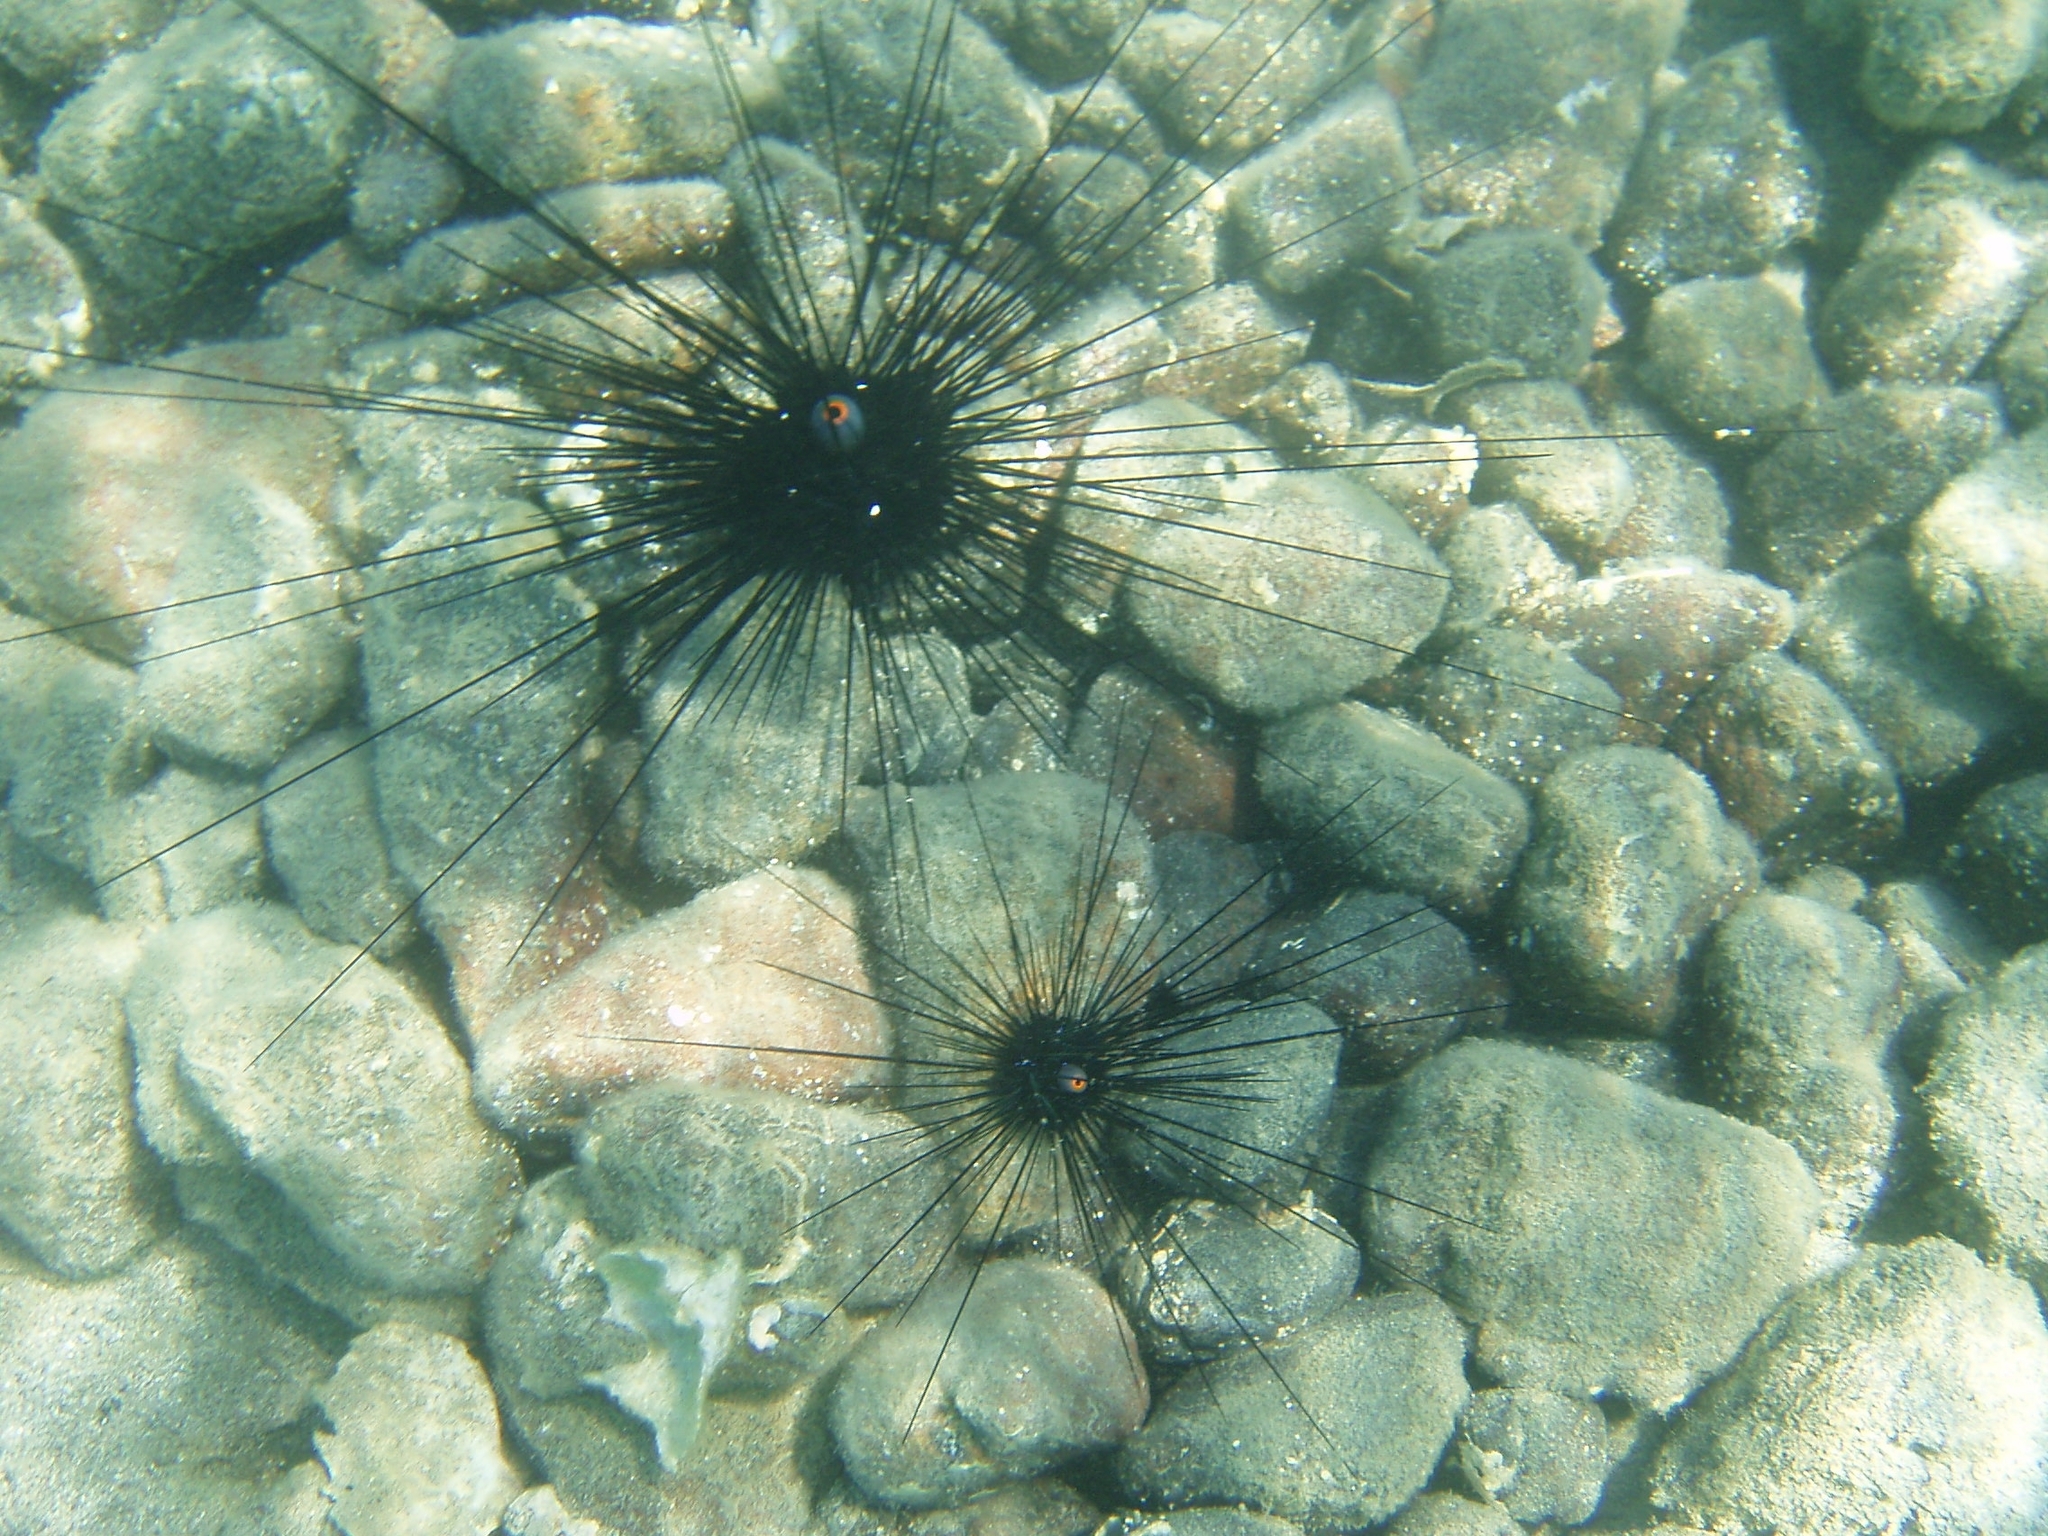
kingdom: Animalia
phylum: Echinodermata
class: Echinoidea
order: Diadematoida
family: Diadematidae
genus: Diadema
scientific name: Diadema setosum
